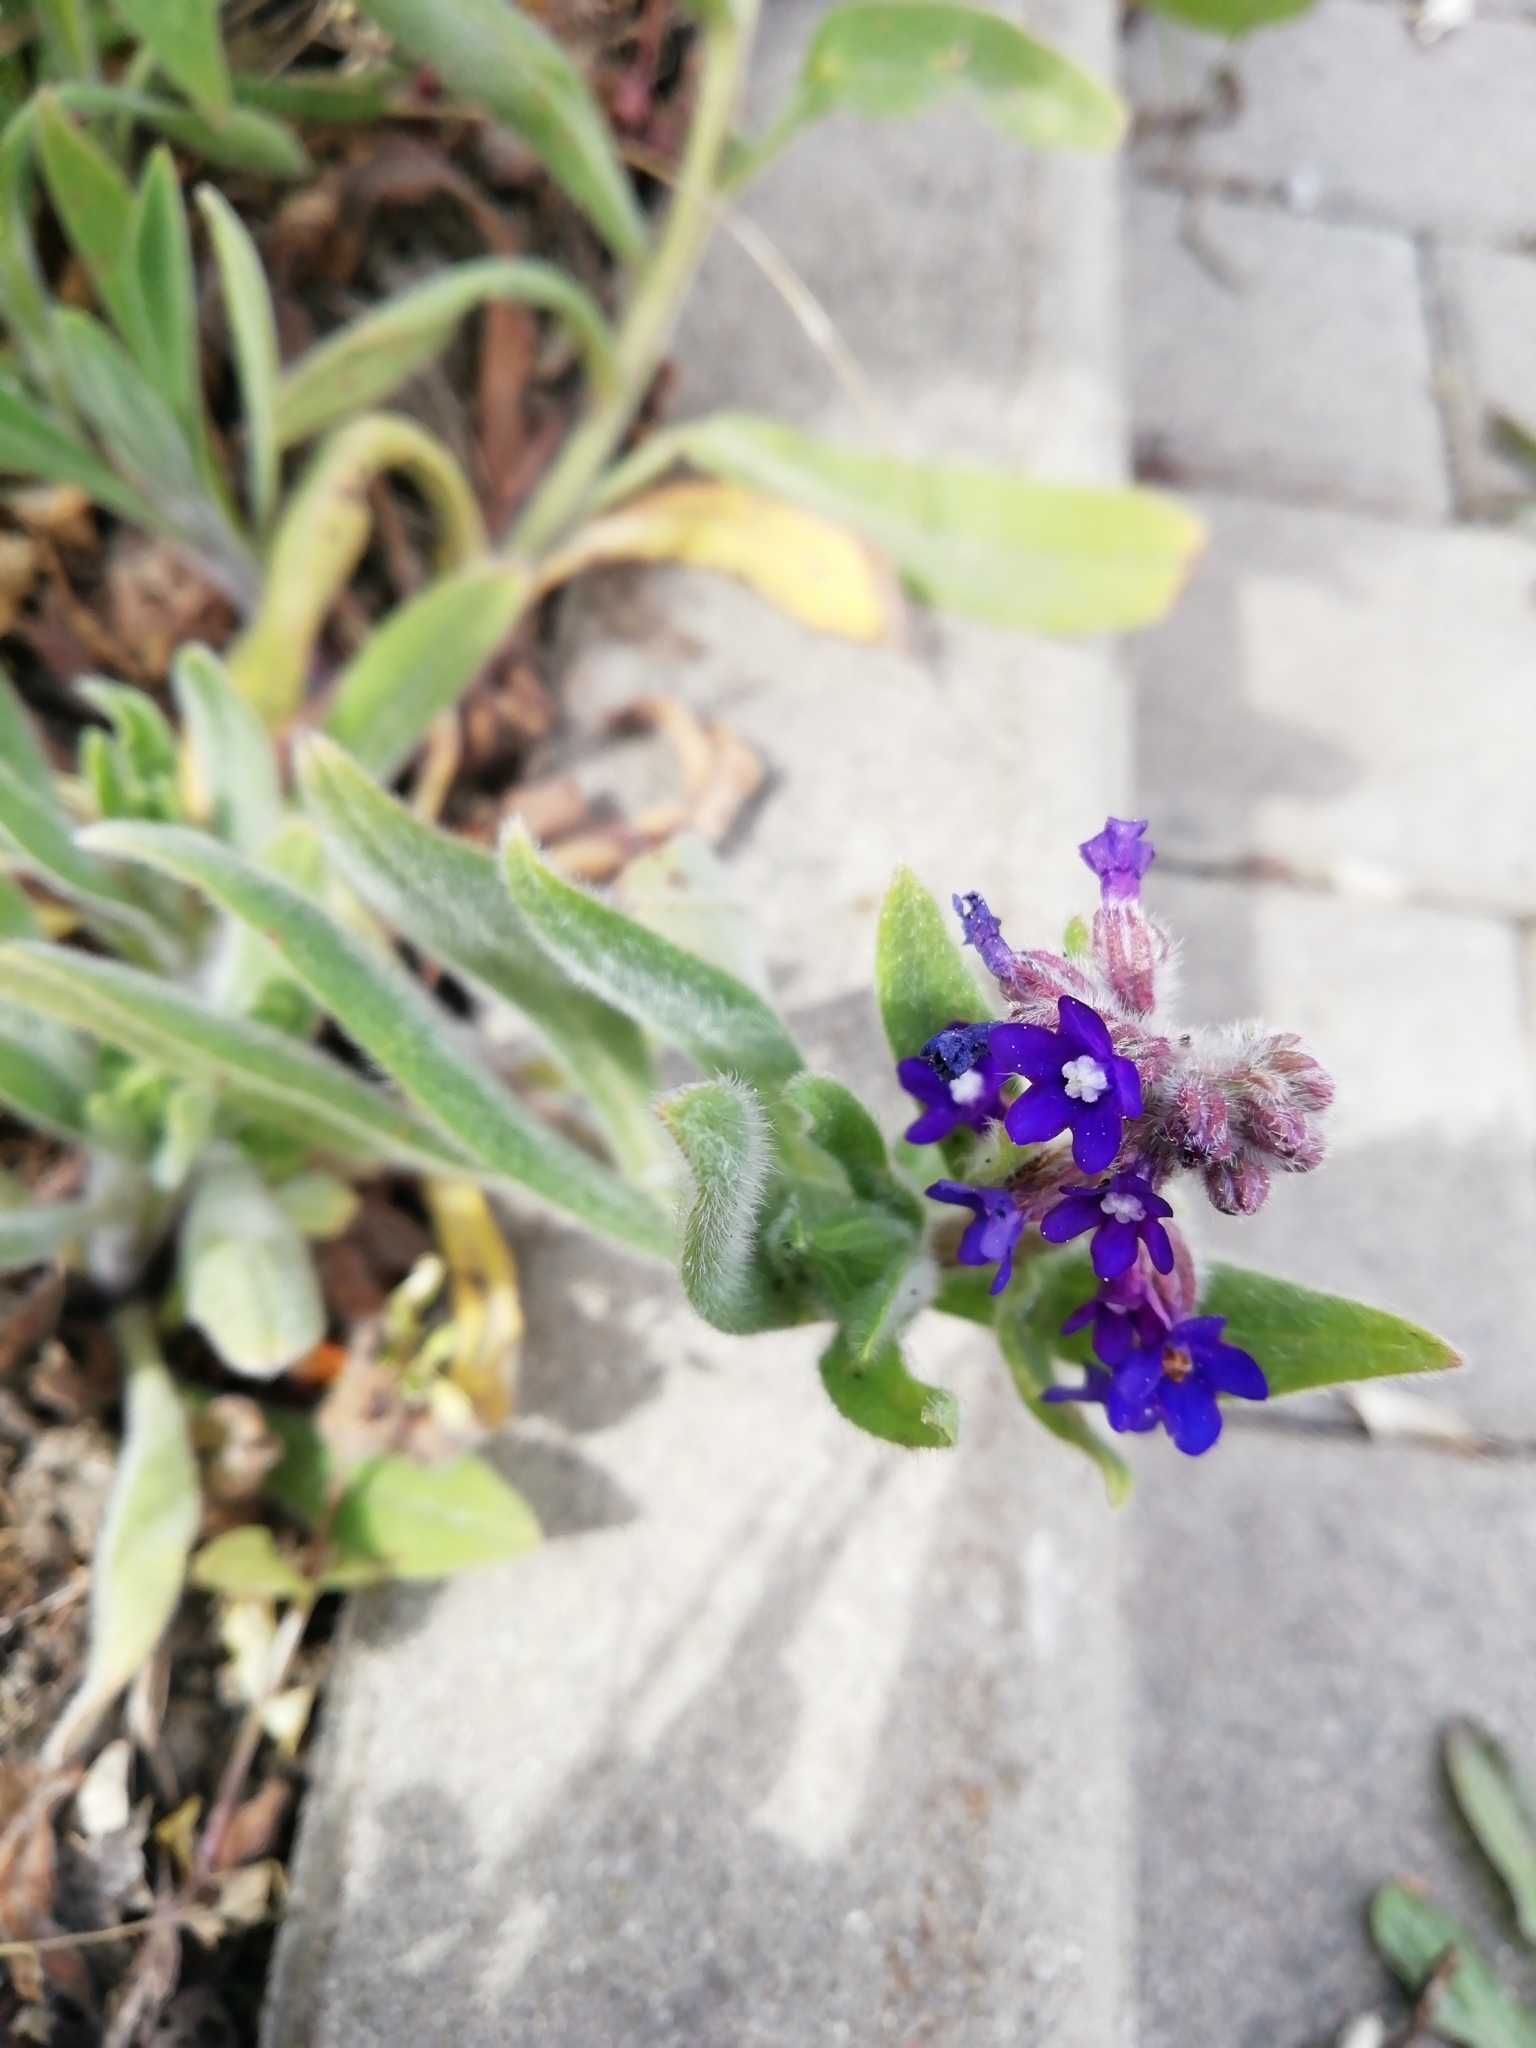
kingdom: Plantae
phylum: Tracheophyta
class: Magnoliopsida
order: Boraginales
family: Boraginaceae
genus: Anchusa
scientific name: Anchusa officinalis
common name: Alkanet
